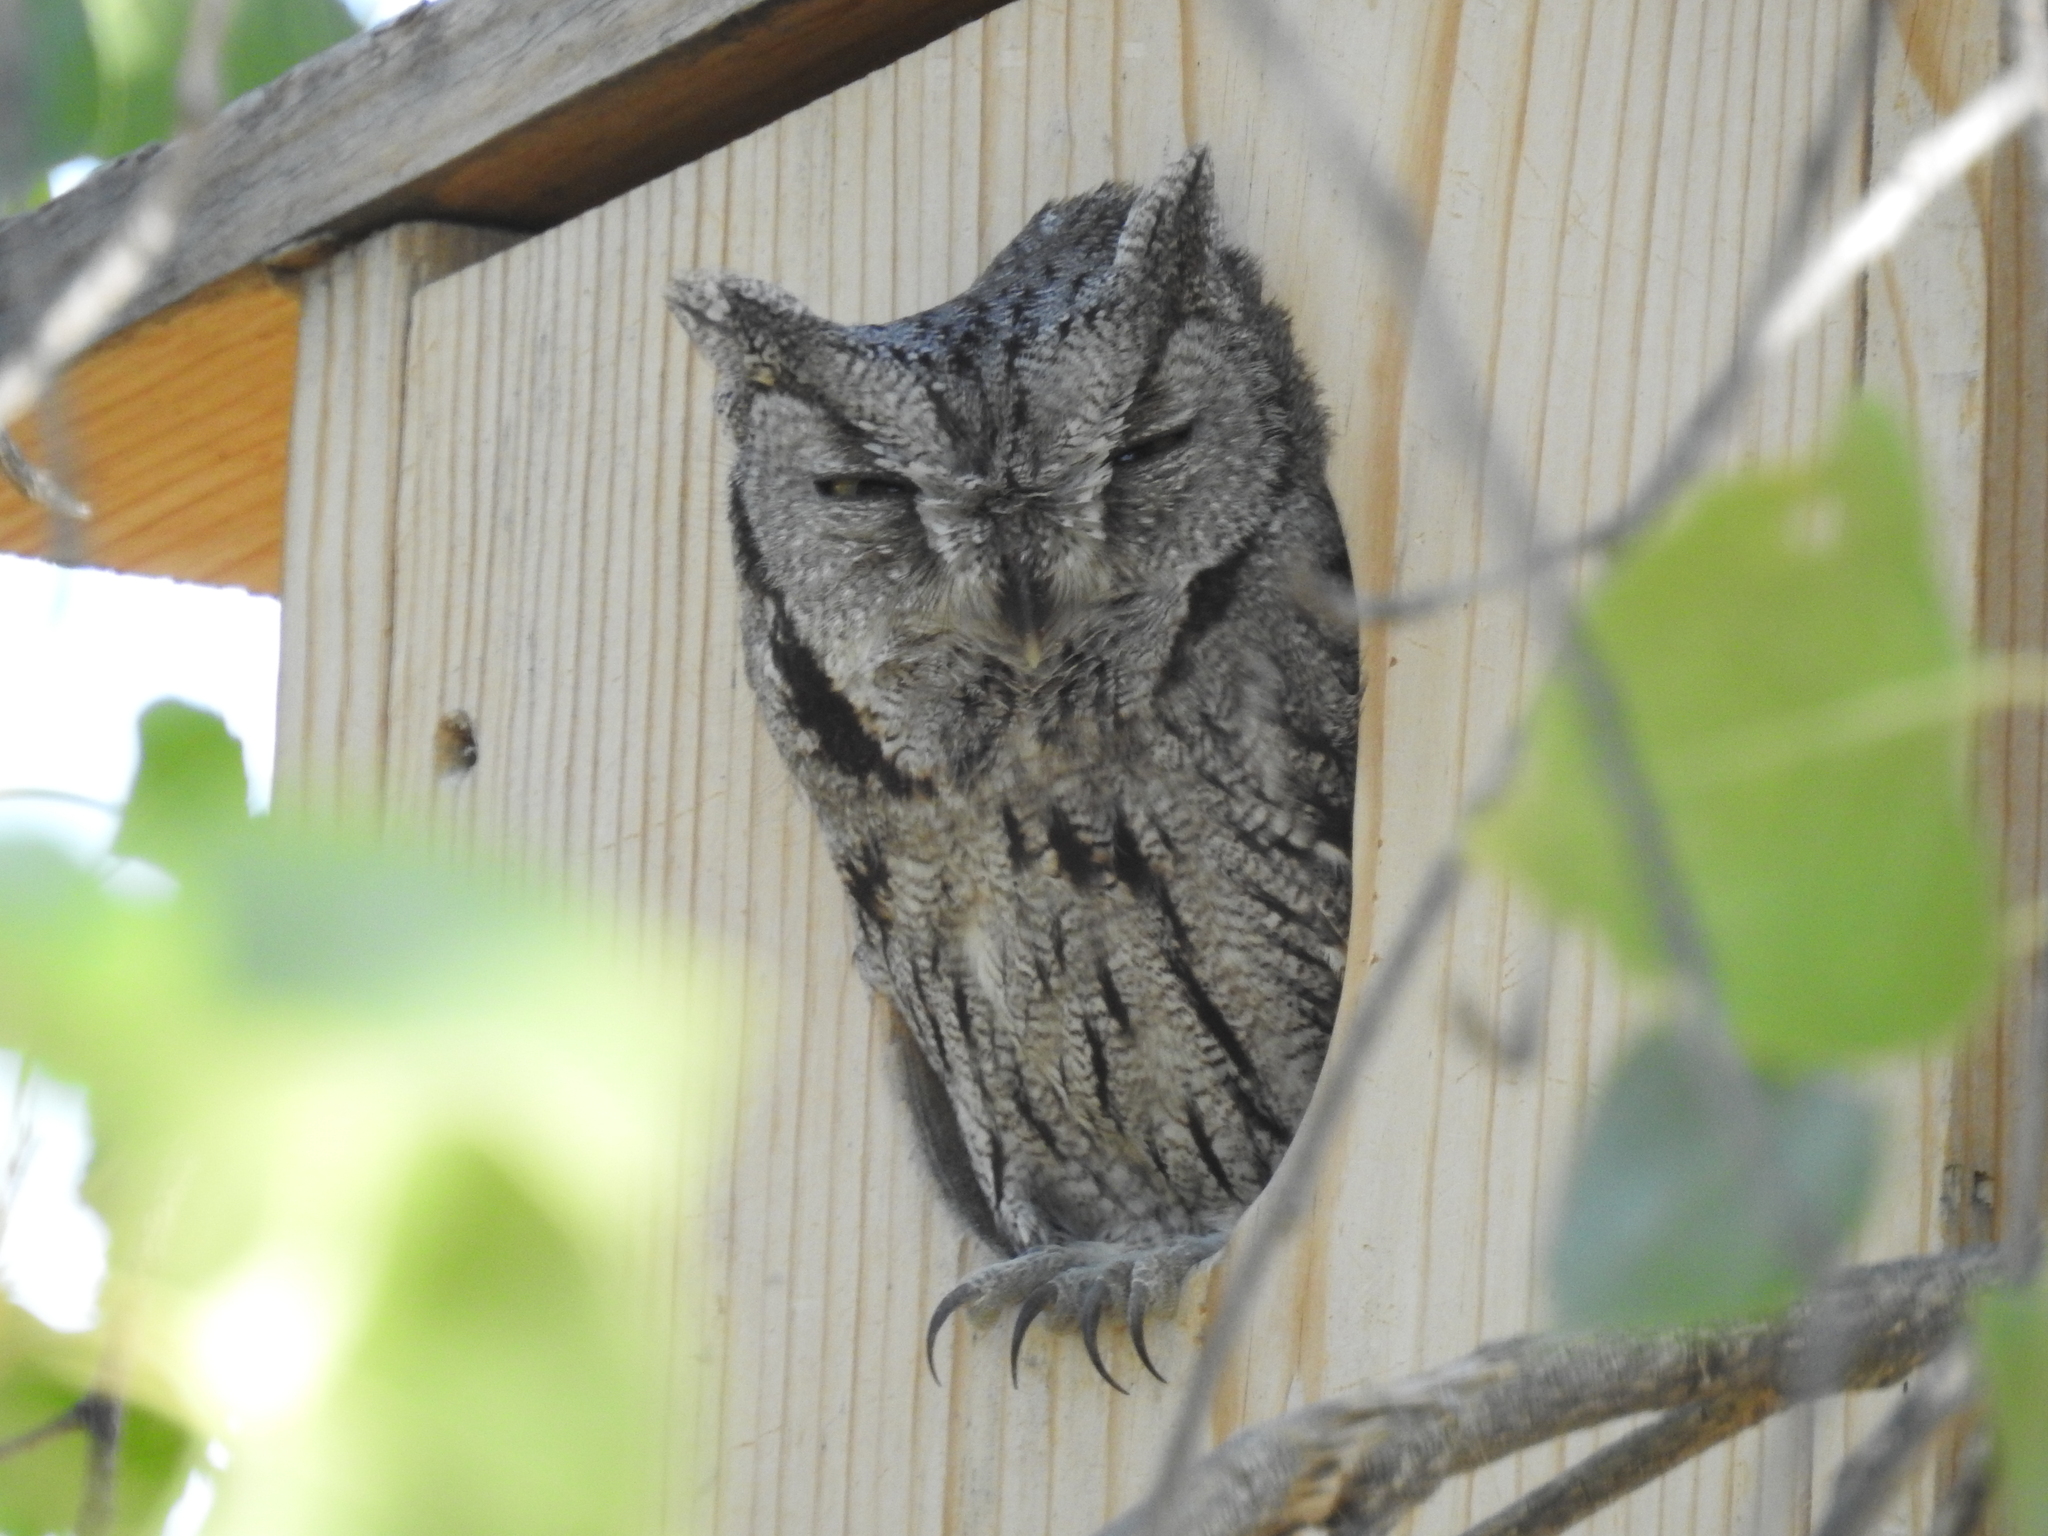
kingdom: Animalia
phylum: Chordata
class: Aves
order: Strigiformes
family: Strigidae
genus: Megascops
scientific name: Megascops kennicottii
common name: Western screech-owl
